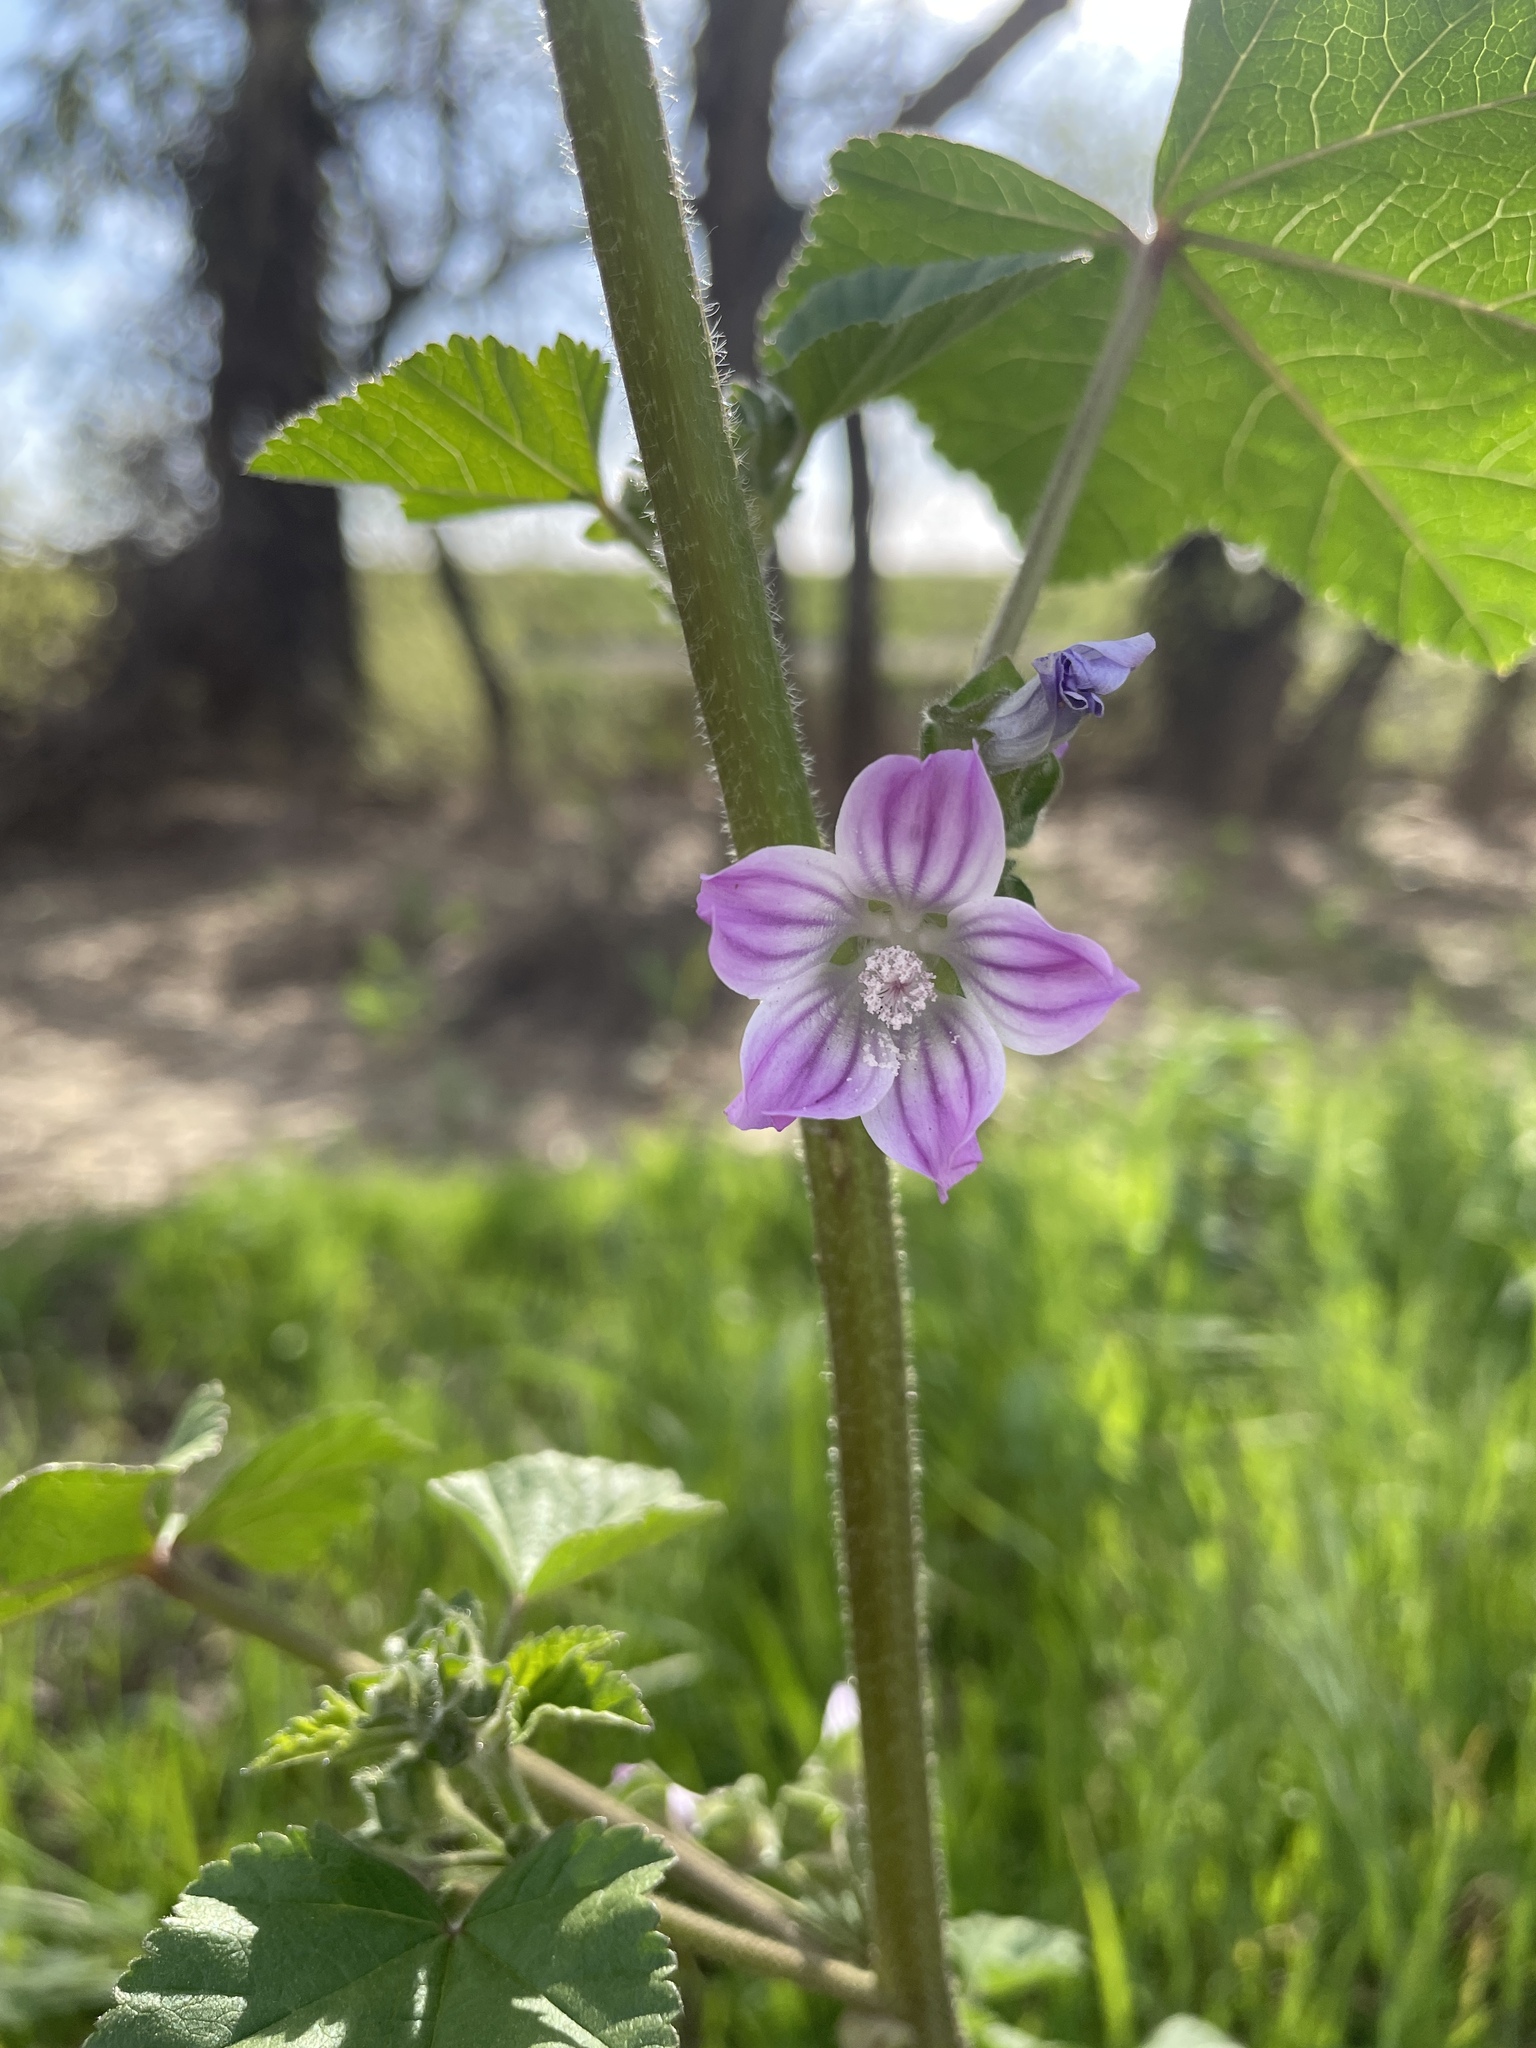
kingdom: Plantae
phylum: Tracheophyta
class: Magnoliopsida
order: Malvales
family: Malvaceae
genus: Malva
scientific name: Malva multiflora
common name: Cheeseweed
